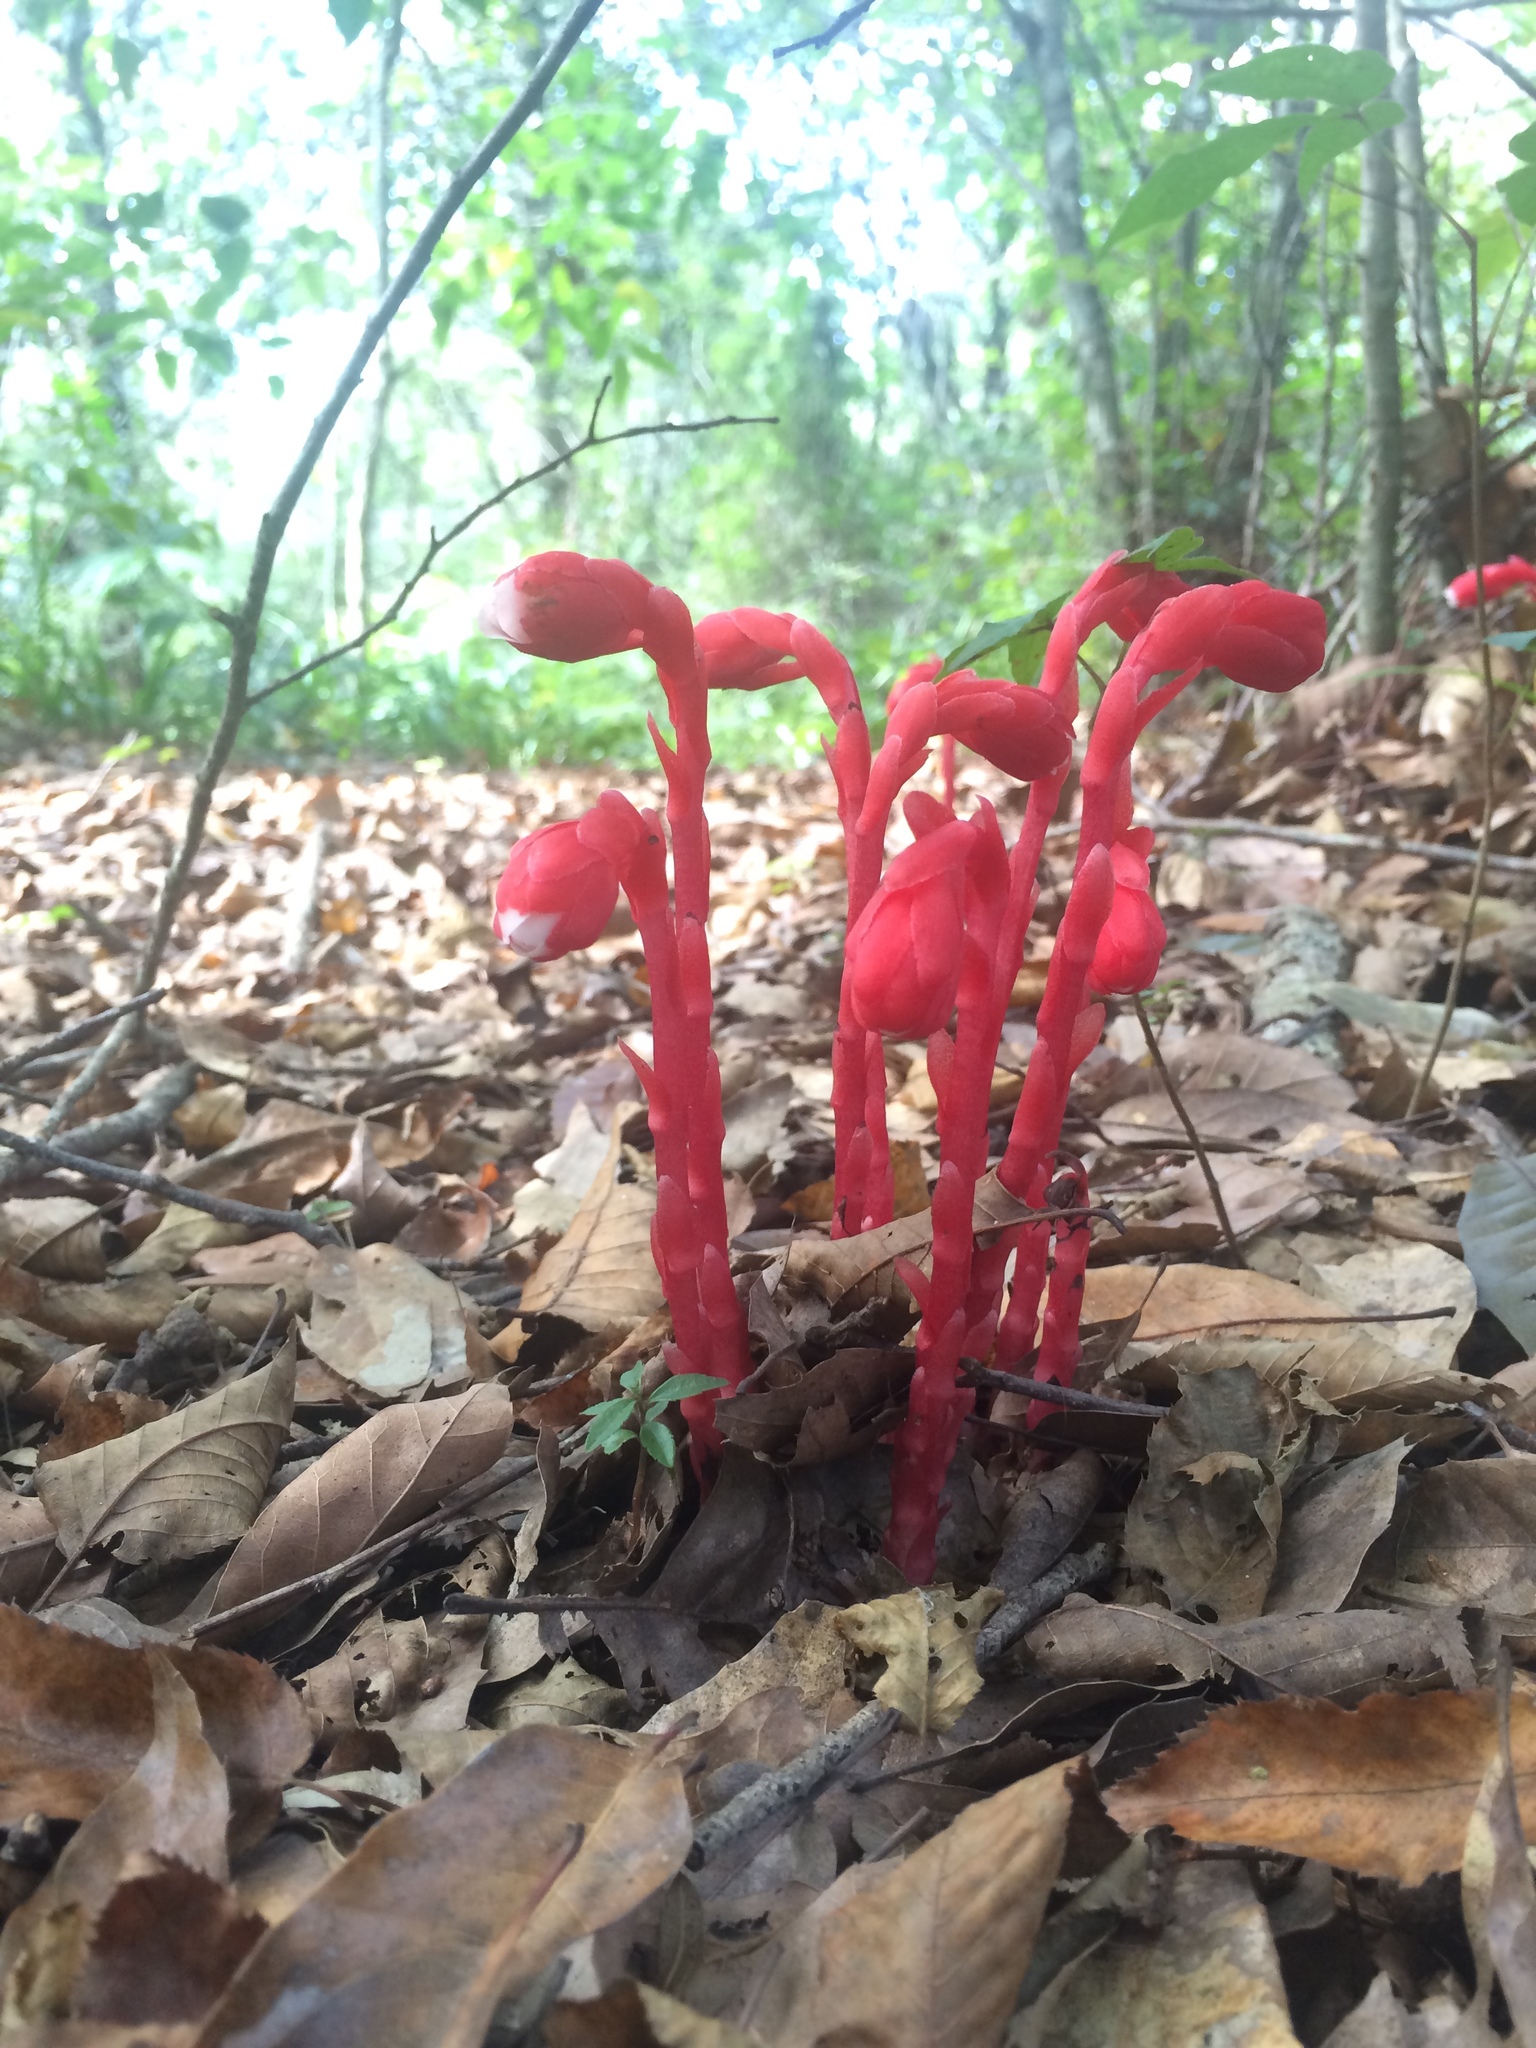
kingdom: Plantae
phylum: Tracheophyta
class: Magnoliopsida
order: Ericales
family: Ericaceae
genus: Monotropa
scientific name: Monotropa coccinea
